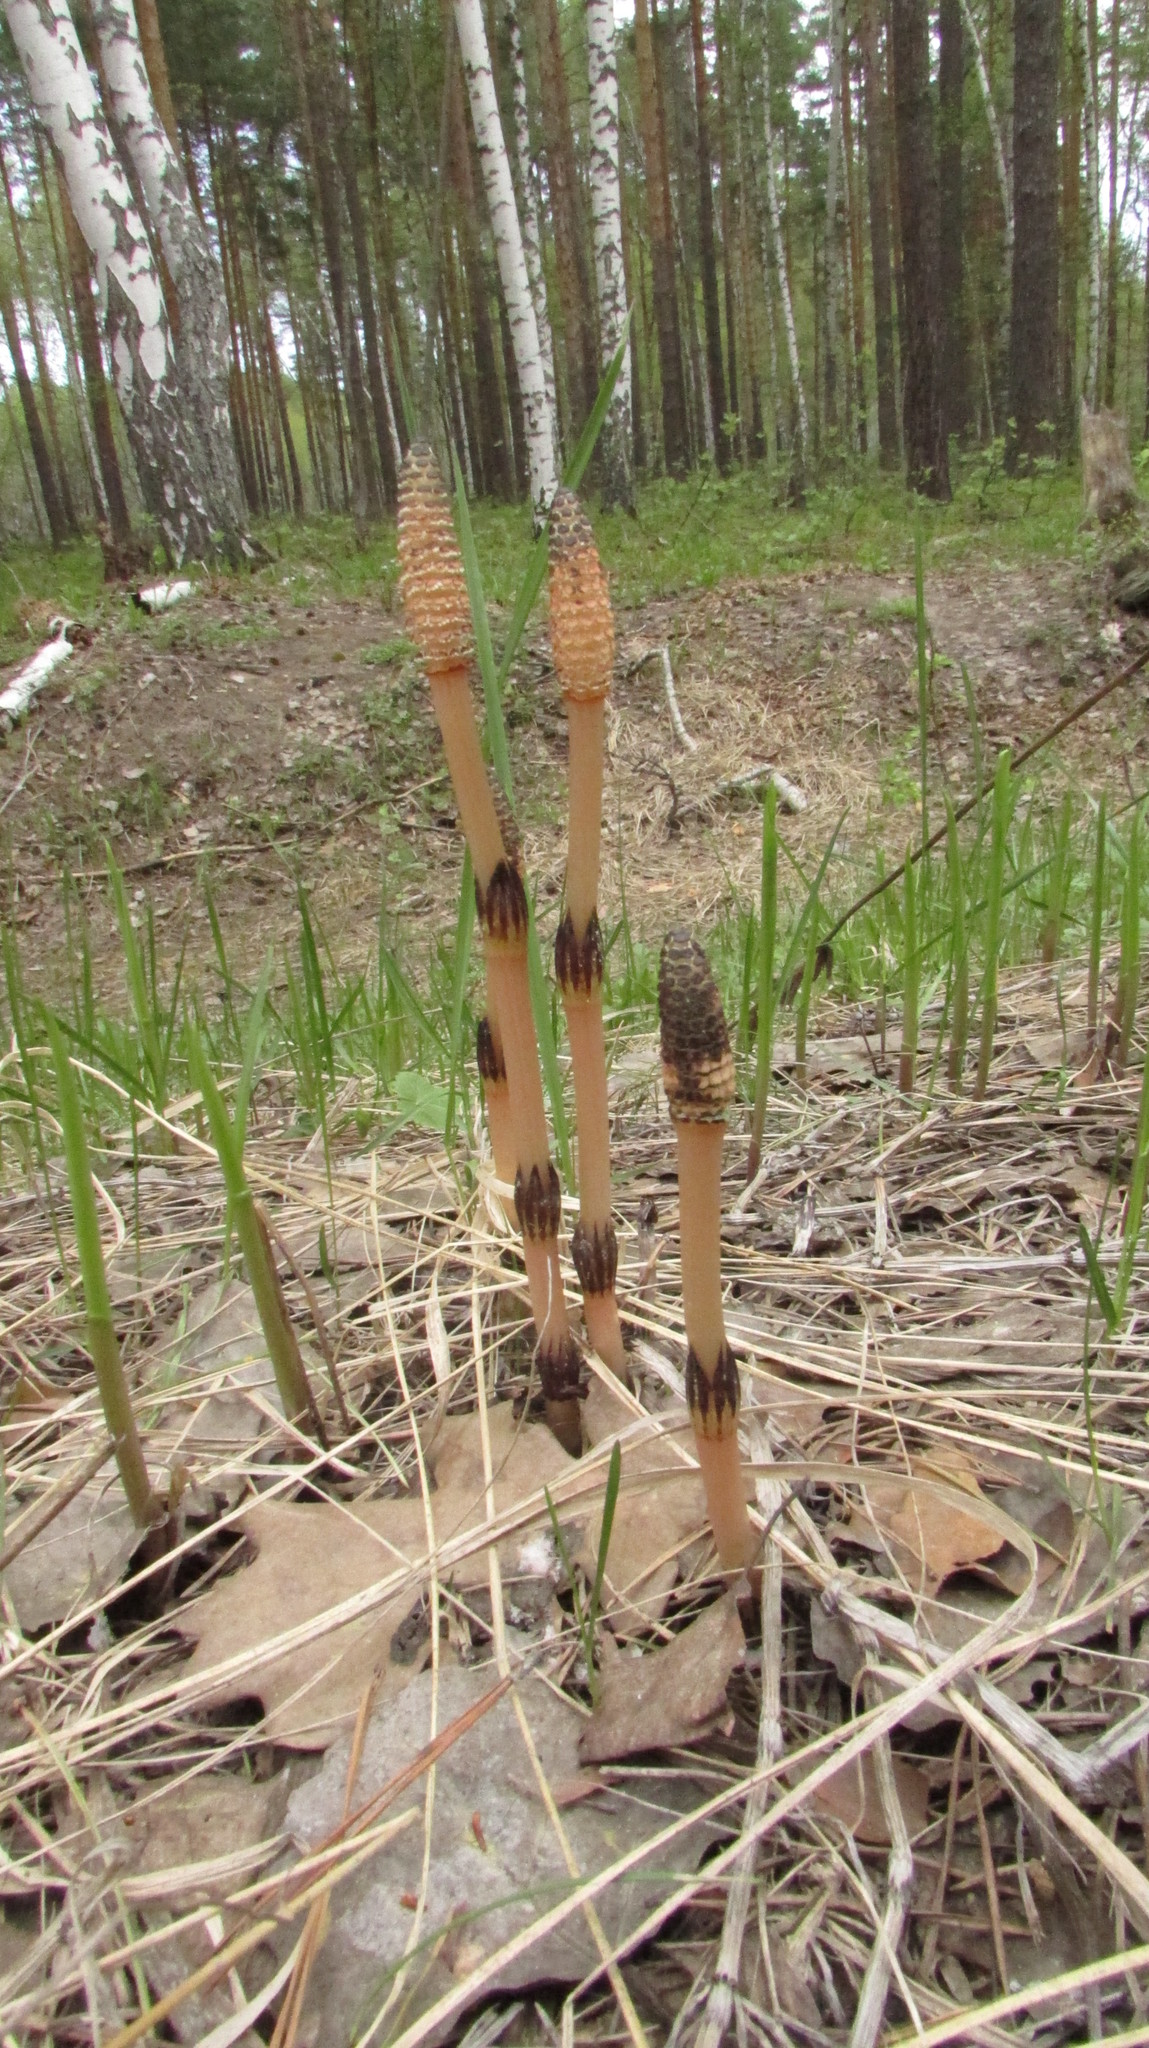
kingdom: Plantae
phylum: Tracheophyta
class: Polypodiopsida
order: Equisetales
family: Equisetaceae
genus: Equisetum
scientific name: Equisetum arvense
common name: Field horsetail
